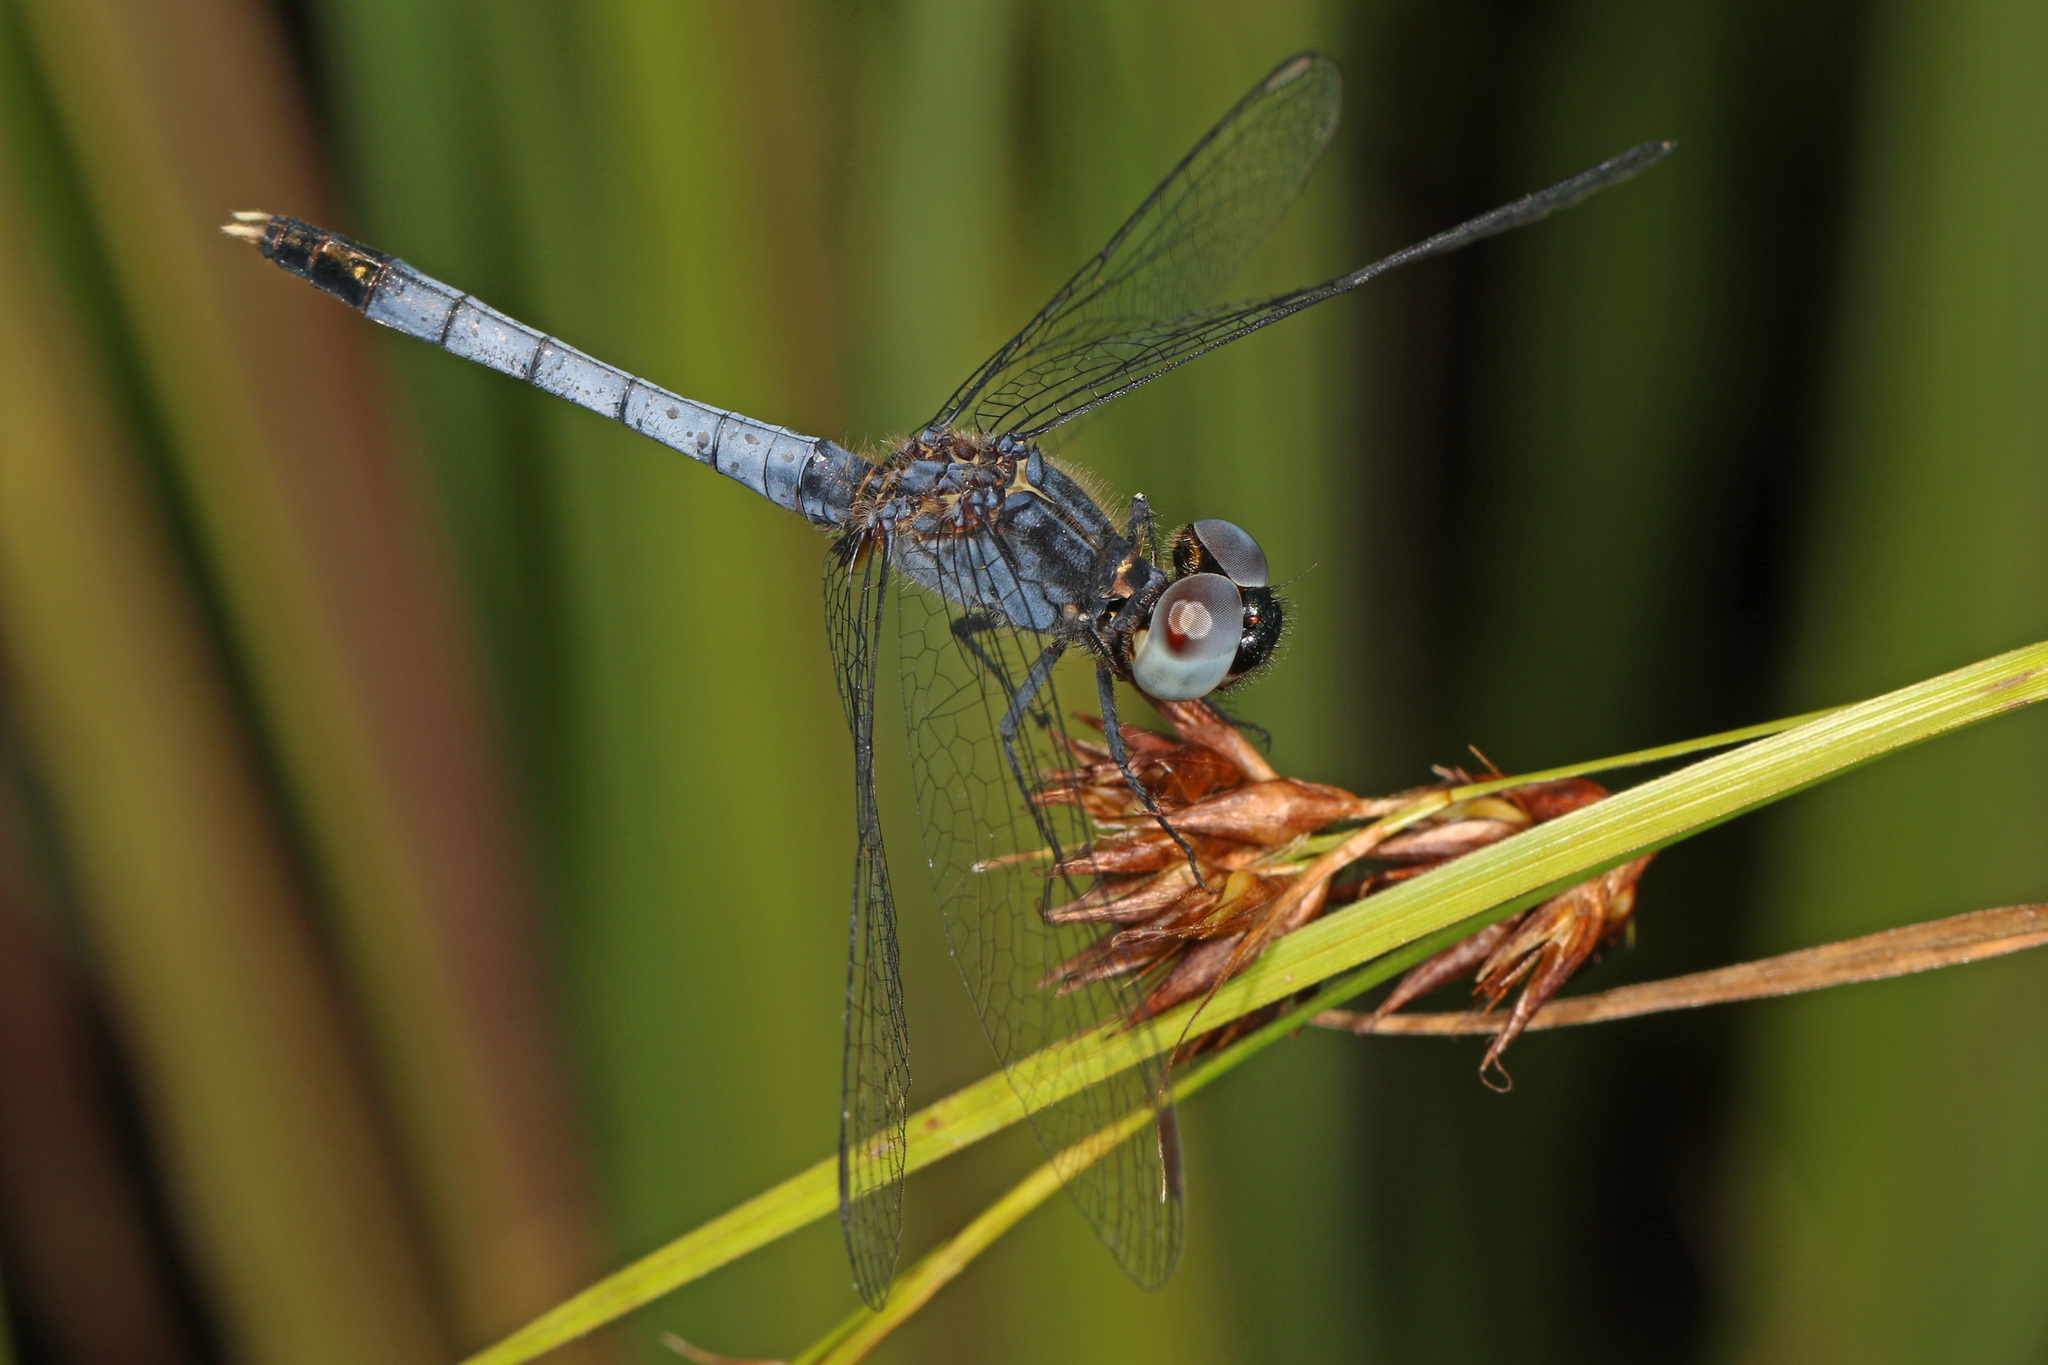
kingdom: Animalia
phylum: Arthropoda
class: Insecta
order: Odonata
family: Libellulidae
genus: Erythrodiplax
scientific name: Erythrodiplax minuscula
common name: Little blue dragonlet
